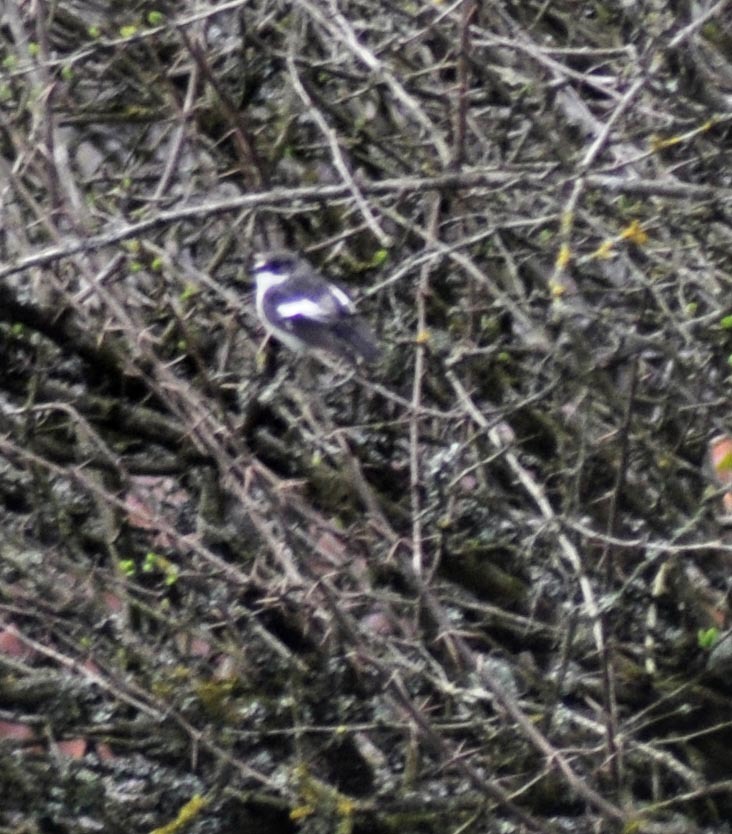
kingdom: Animalia
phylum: Chordata
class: Aves
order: Passeriformes
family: Muscicapidae
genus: Ficedula
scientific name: Ficedula hypoleuca
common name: European pied flycatcher
